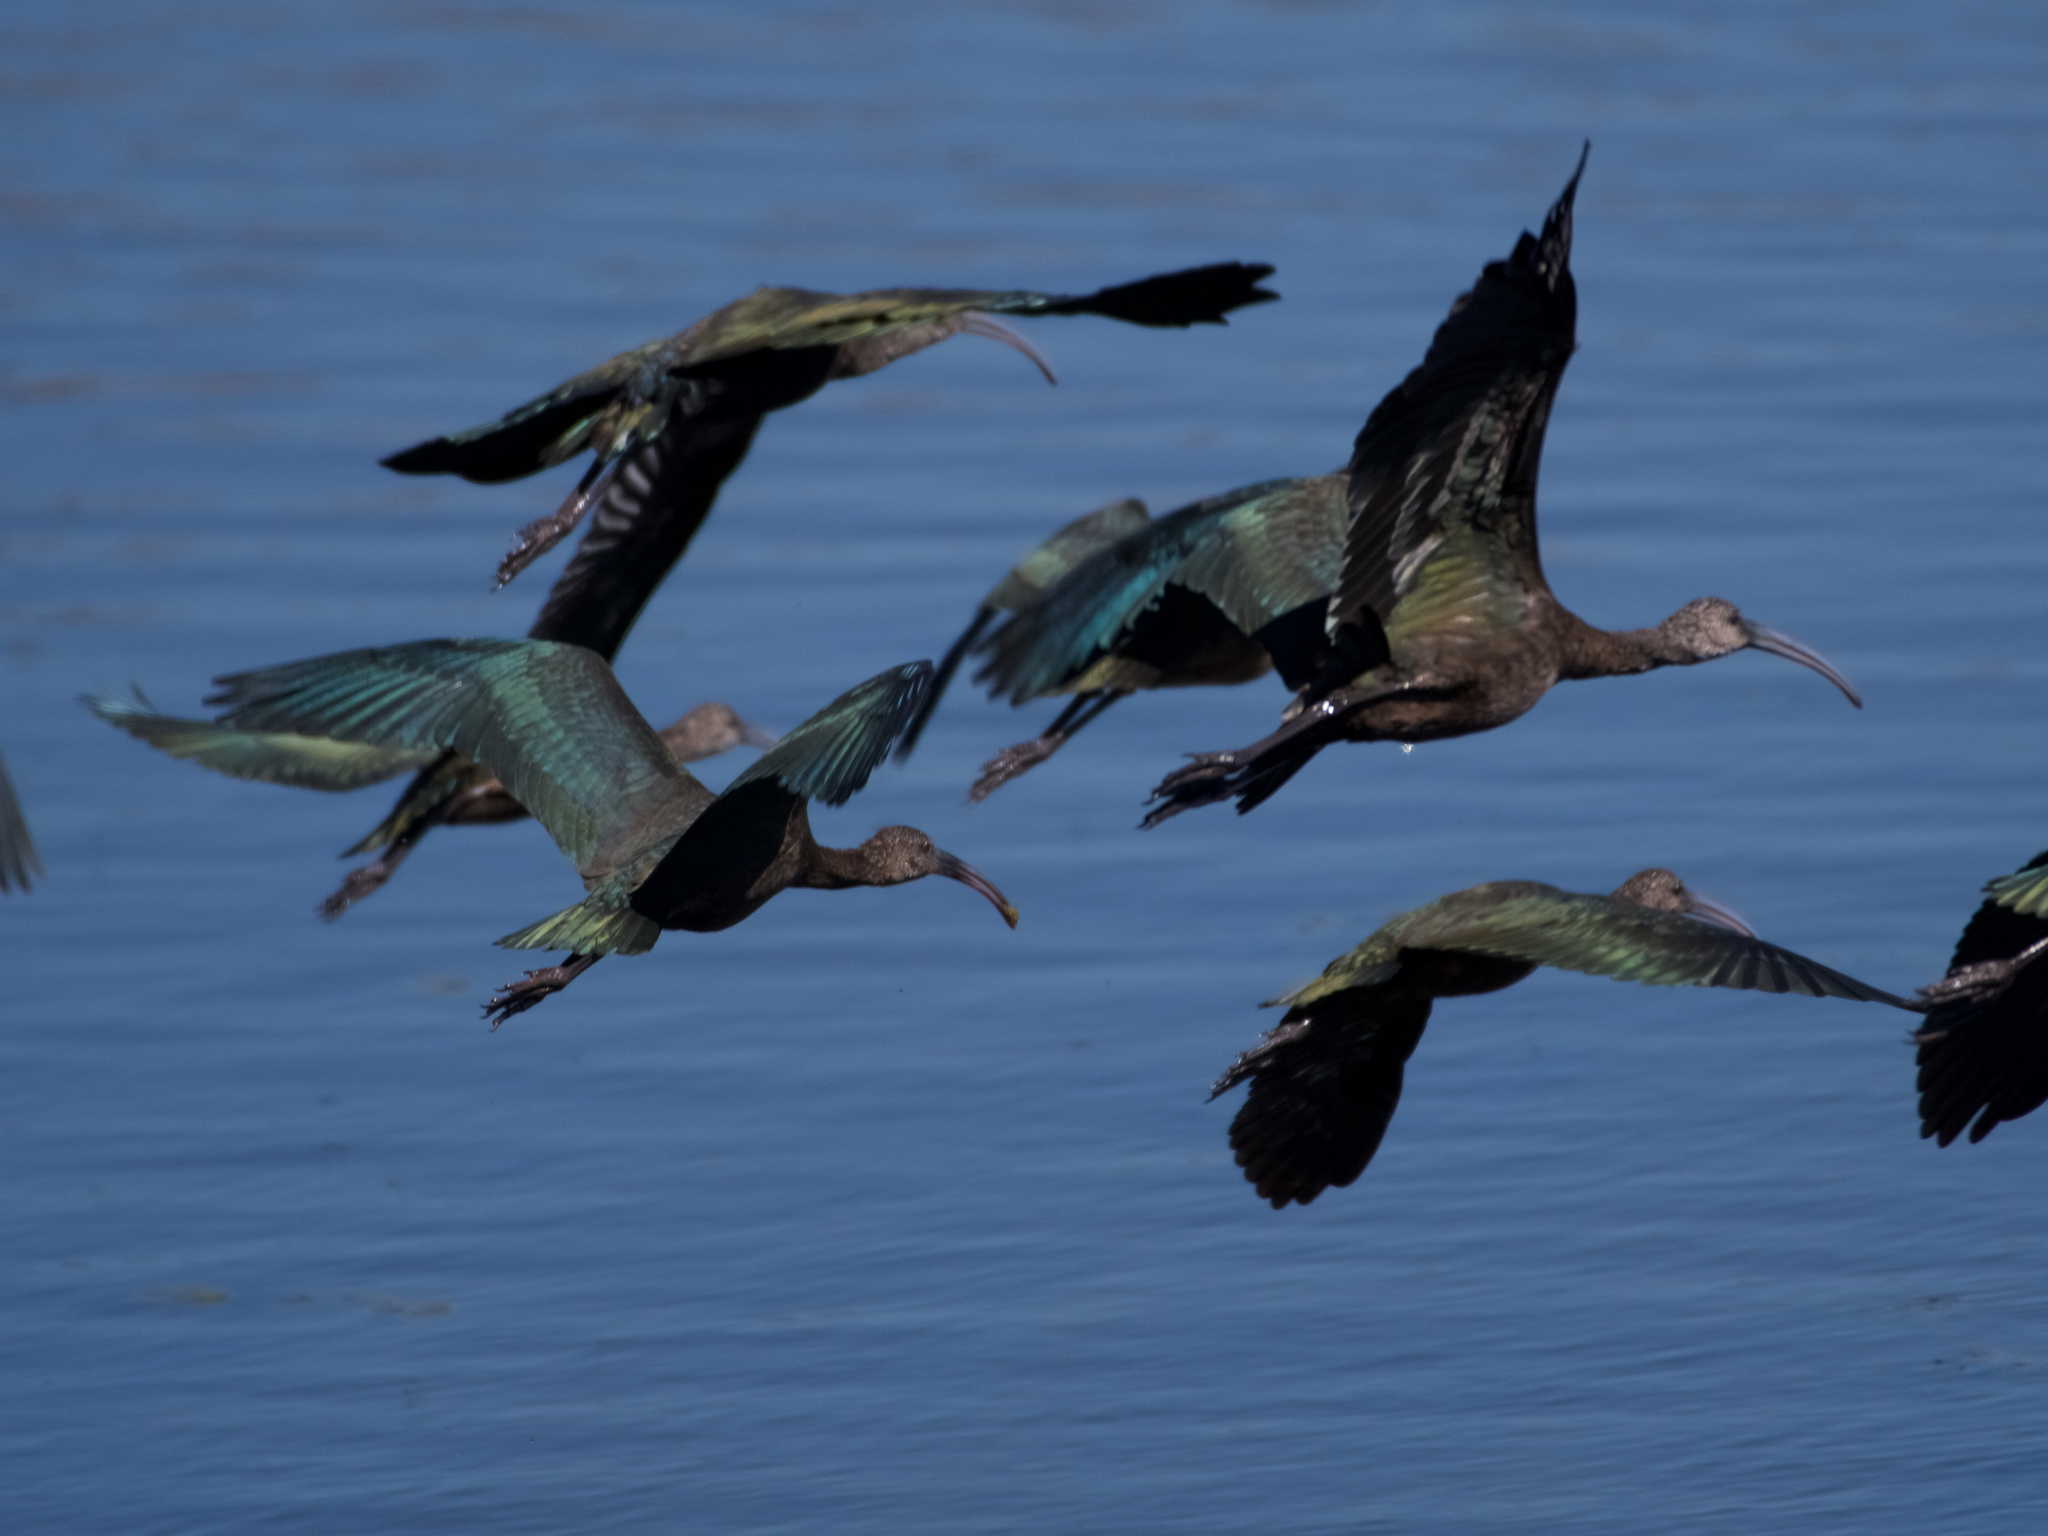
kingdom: Animalia
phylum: Chordata
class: Aves
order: Pelecaniformes
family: Threskiornithidae
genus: Plegadis
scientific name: Plegadis chihi
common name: White-faced ibis
